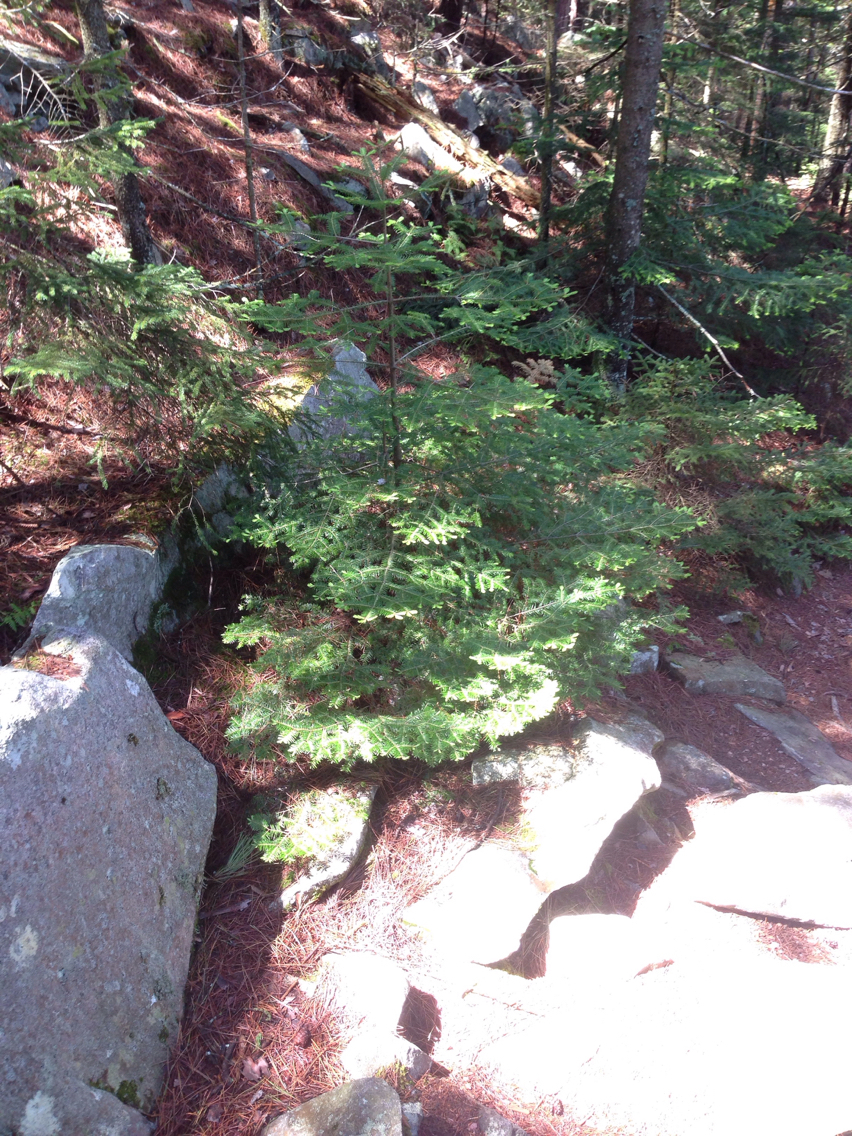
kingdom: Plantae
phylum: Tracheophyta
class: Pinopsida
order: Pinales
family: Pinaceae
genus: Abies
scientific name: Abies balsamea
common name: Balsam fir
